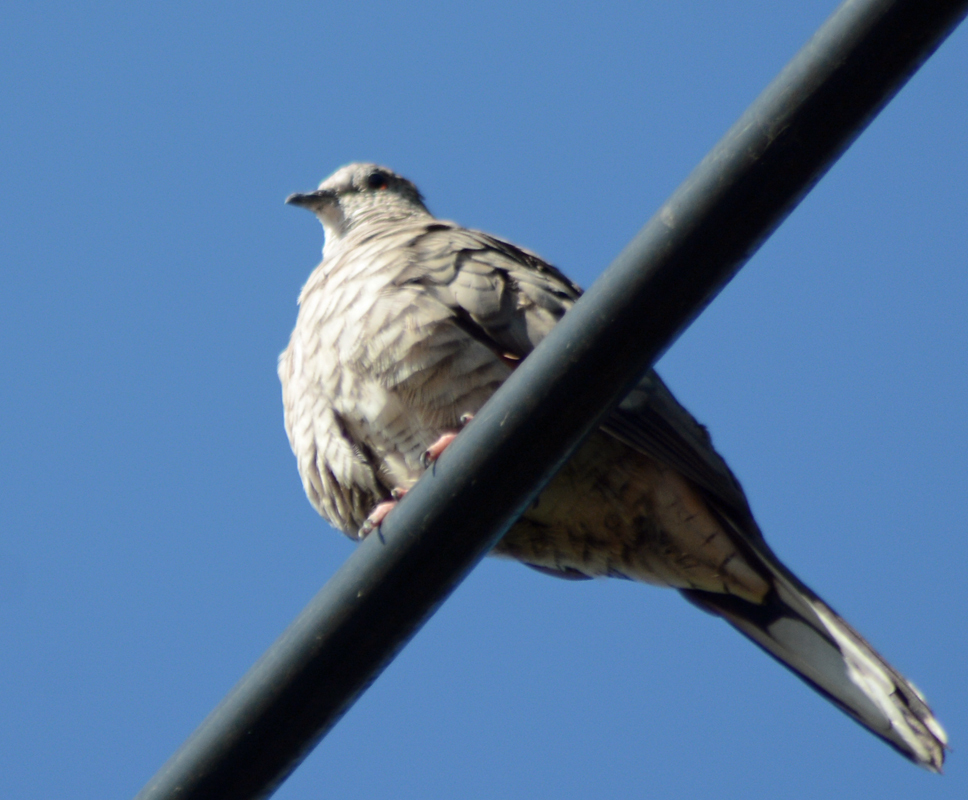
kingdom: Animalia
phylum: Chordata
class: Aves
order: Columbiformes
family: Columbidae
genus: Columbina
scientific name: Columbina inca
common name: Inca dove
